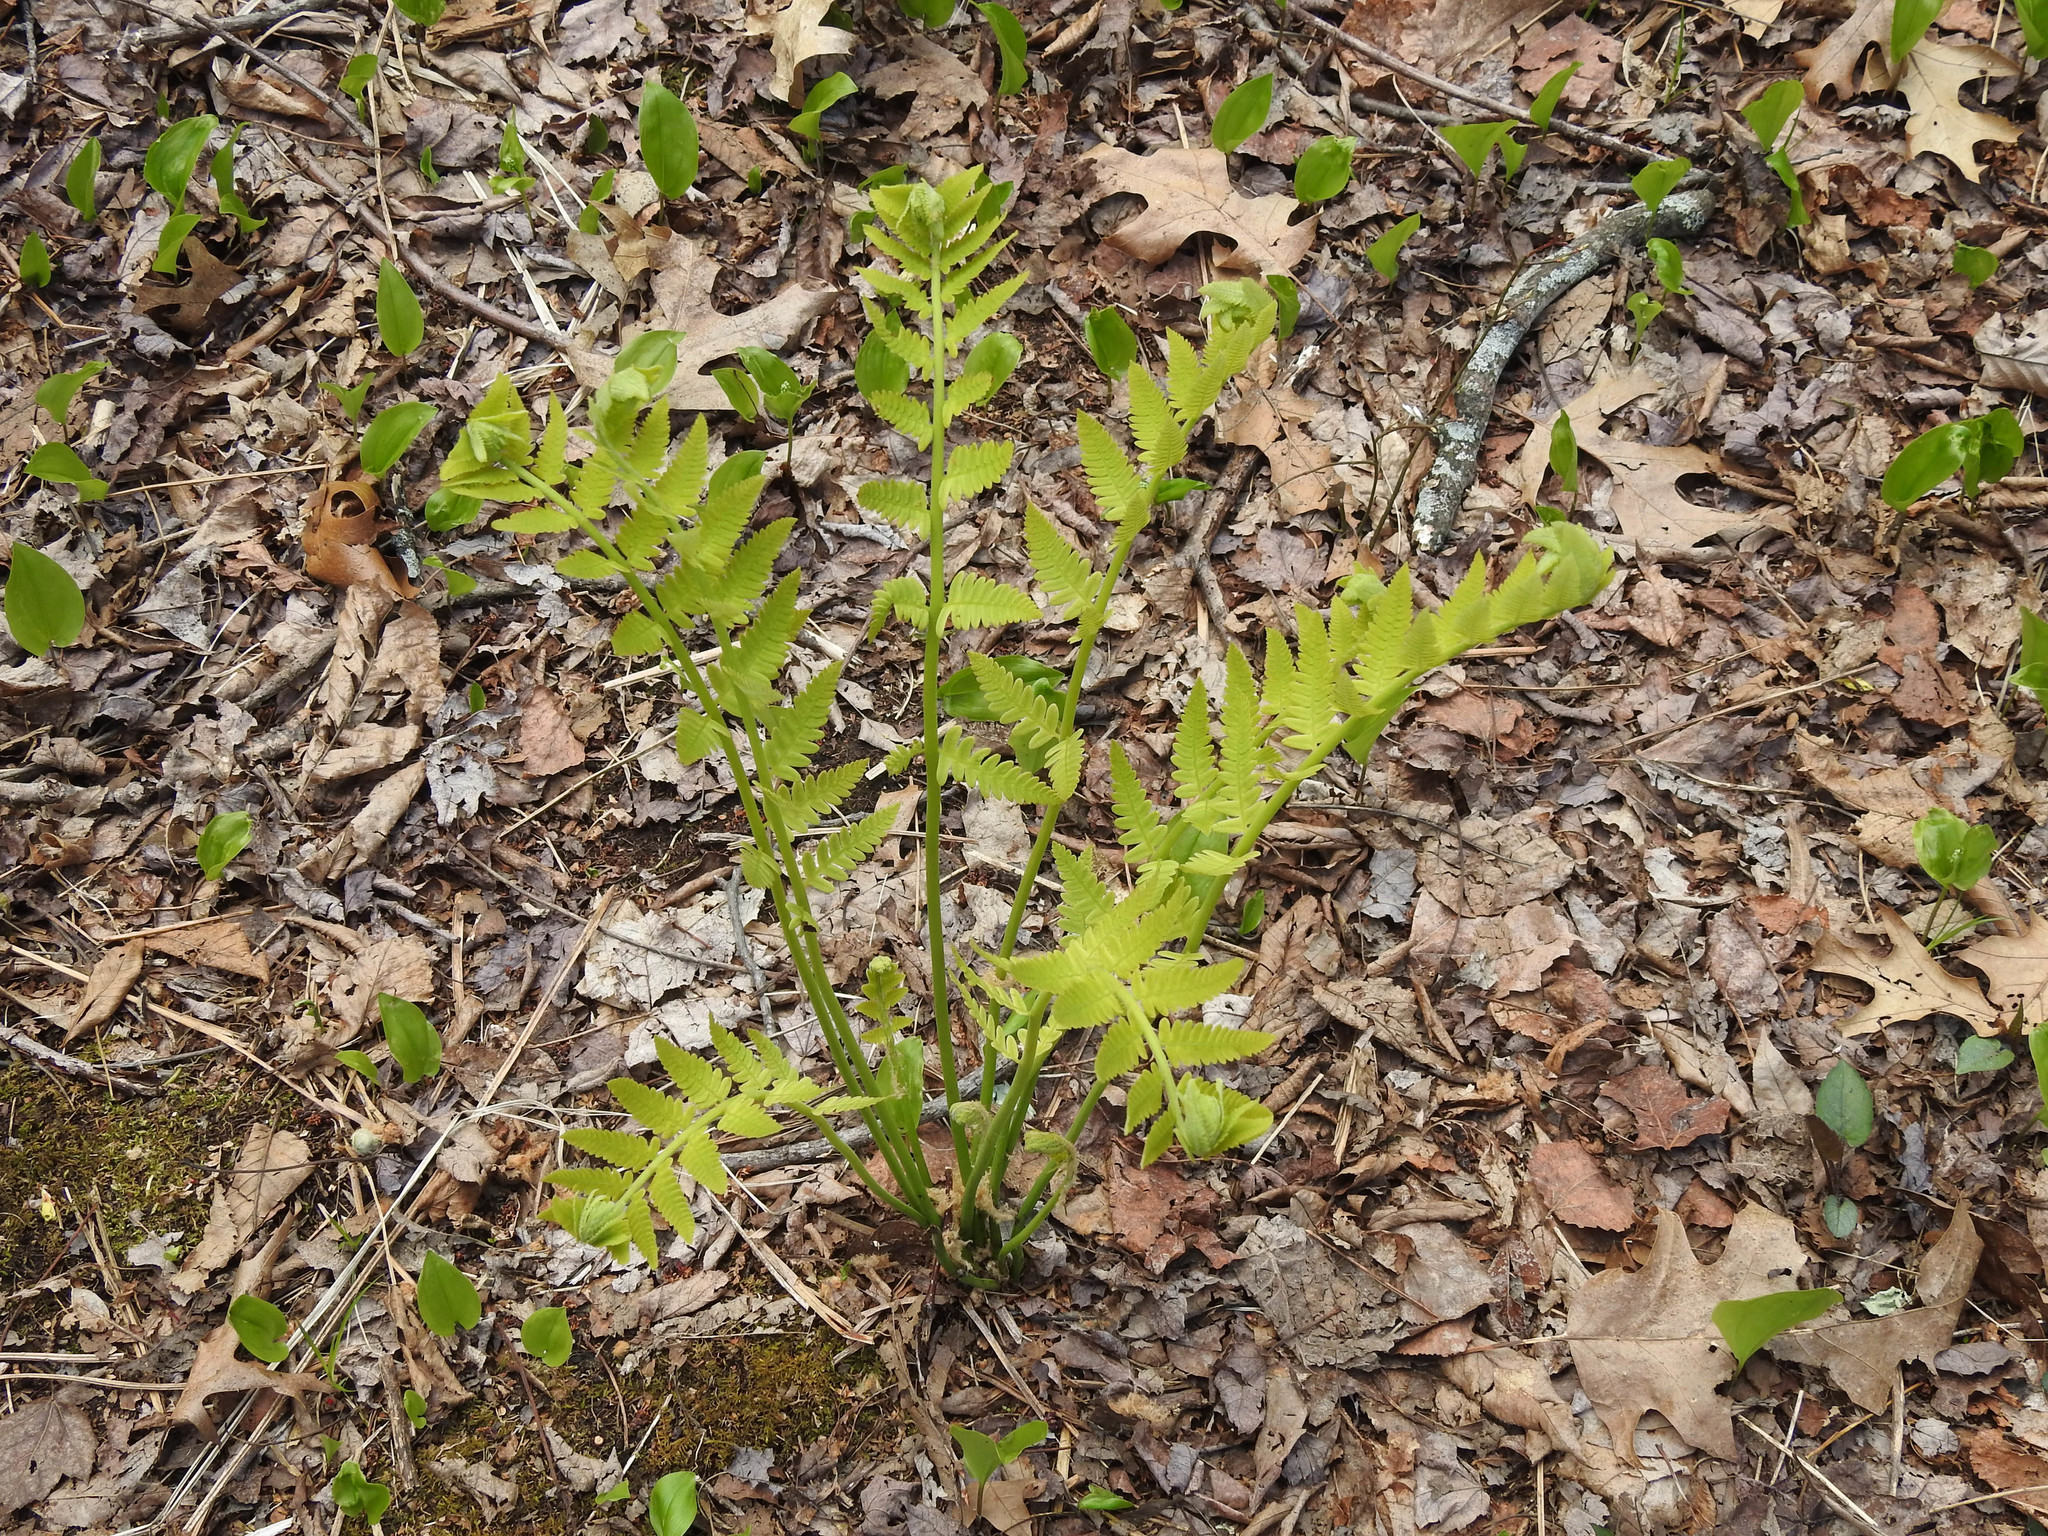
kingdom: Plantae
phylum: Tracheophyta
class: Polypodiopsida
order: Osmundales
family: Osmundaceae
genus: Claytosmunda
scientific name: Claytosmunda claytoniana
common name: Clayton's fern
